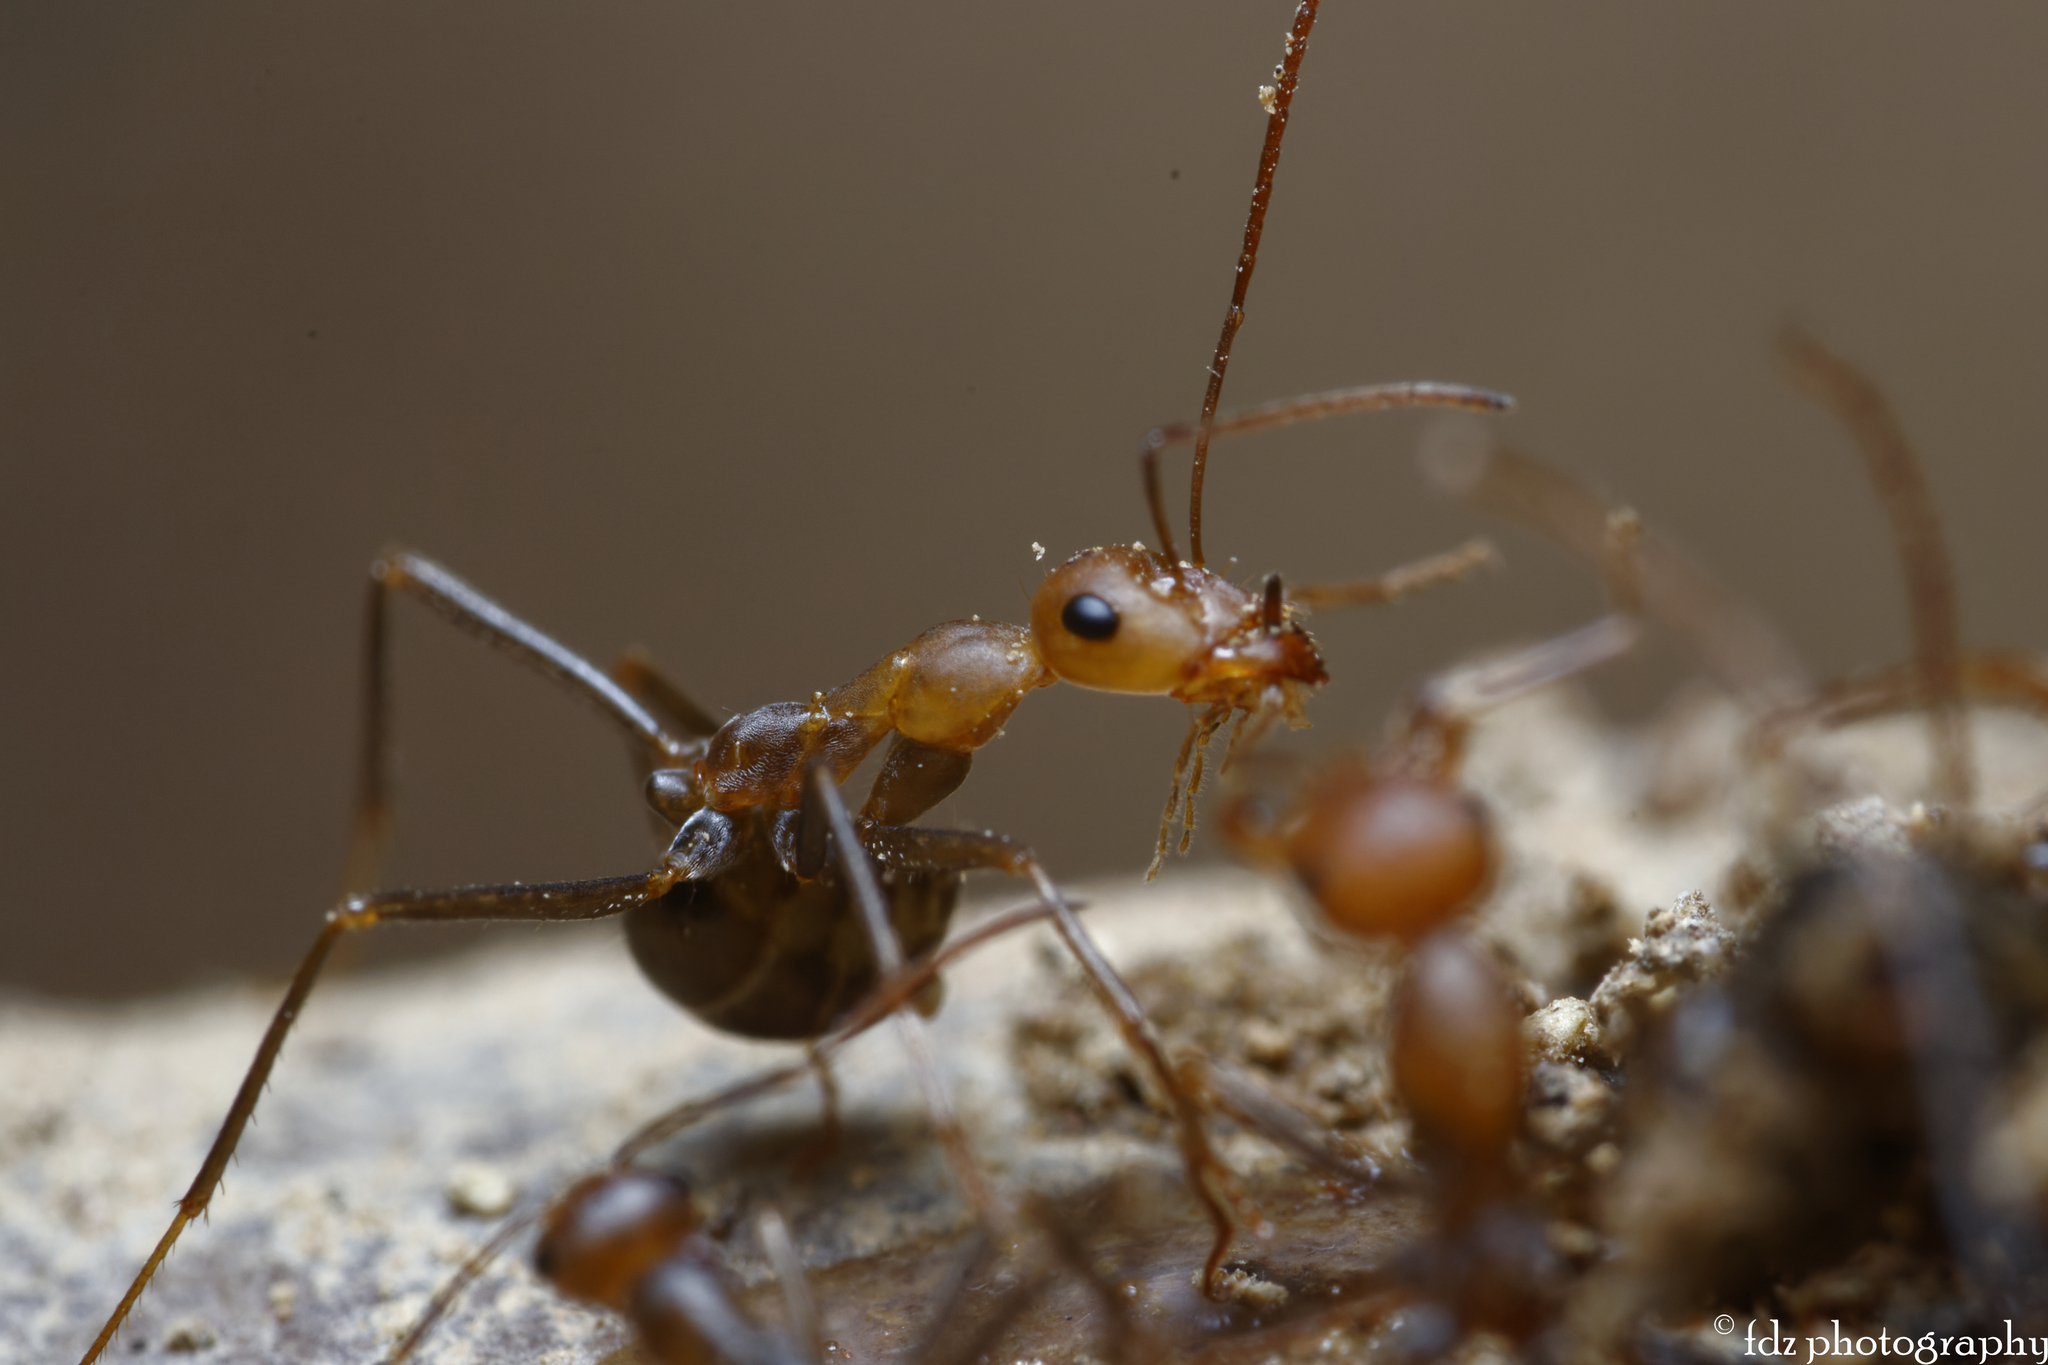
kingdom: Animalia
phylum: Arthropoda
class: Insecta
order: Hymenoptera
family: Formicidae
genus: Cataglyphis
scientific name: Cataglyphis velox
